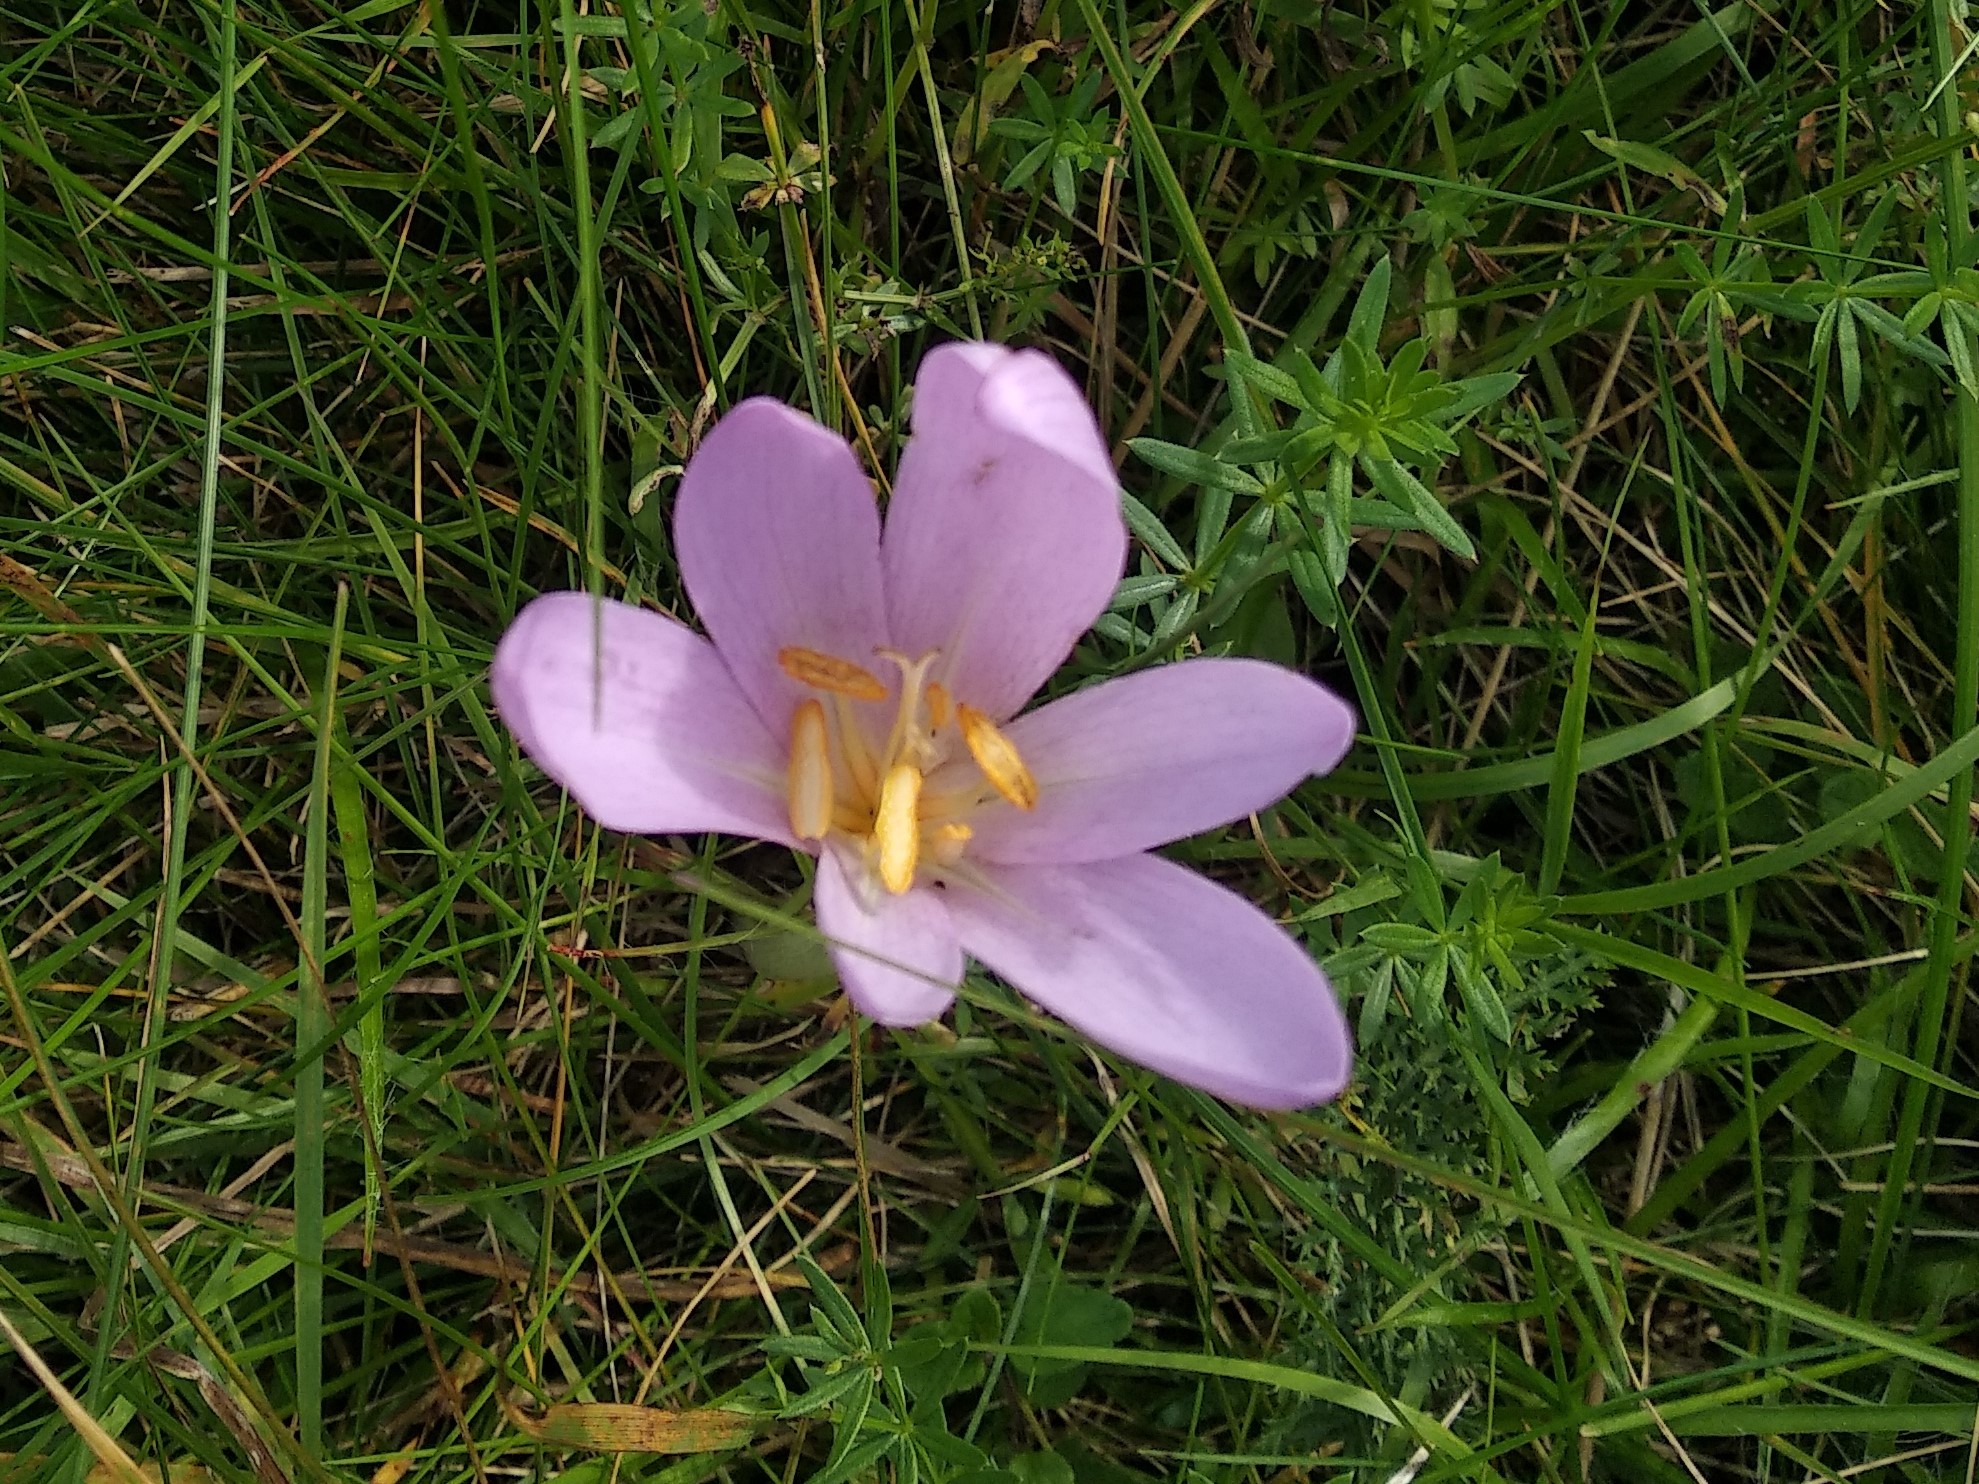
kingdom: Plantae
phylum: Tracheophyta
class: Liliopsida
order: Liliales
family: Colchicaceae
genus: Colchicum
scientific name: Colchicum autumnale
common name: Autumn crocus
